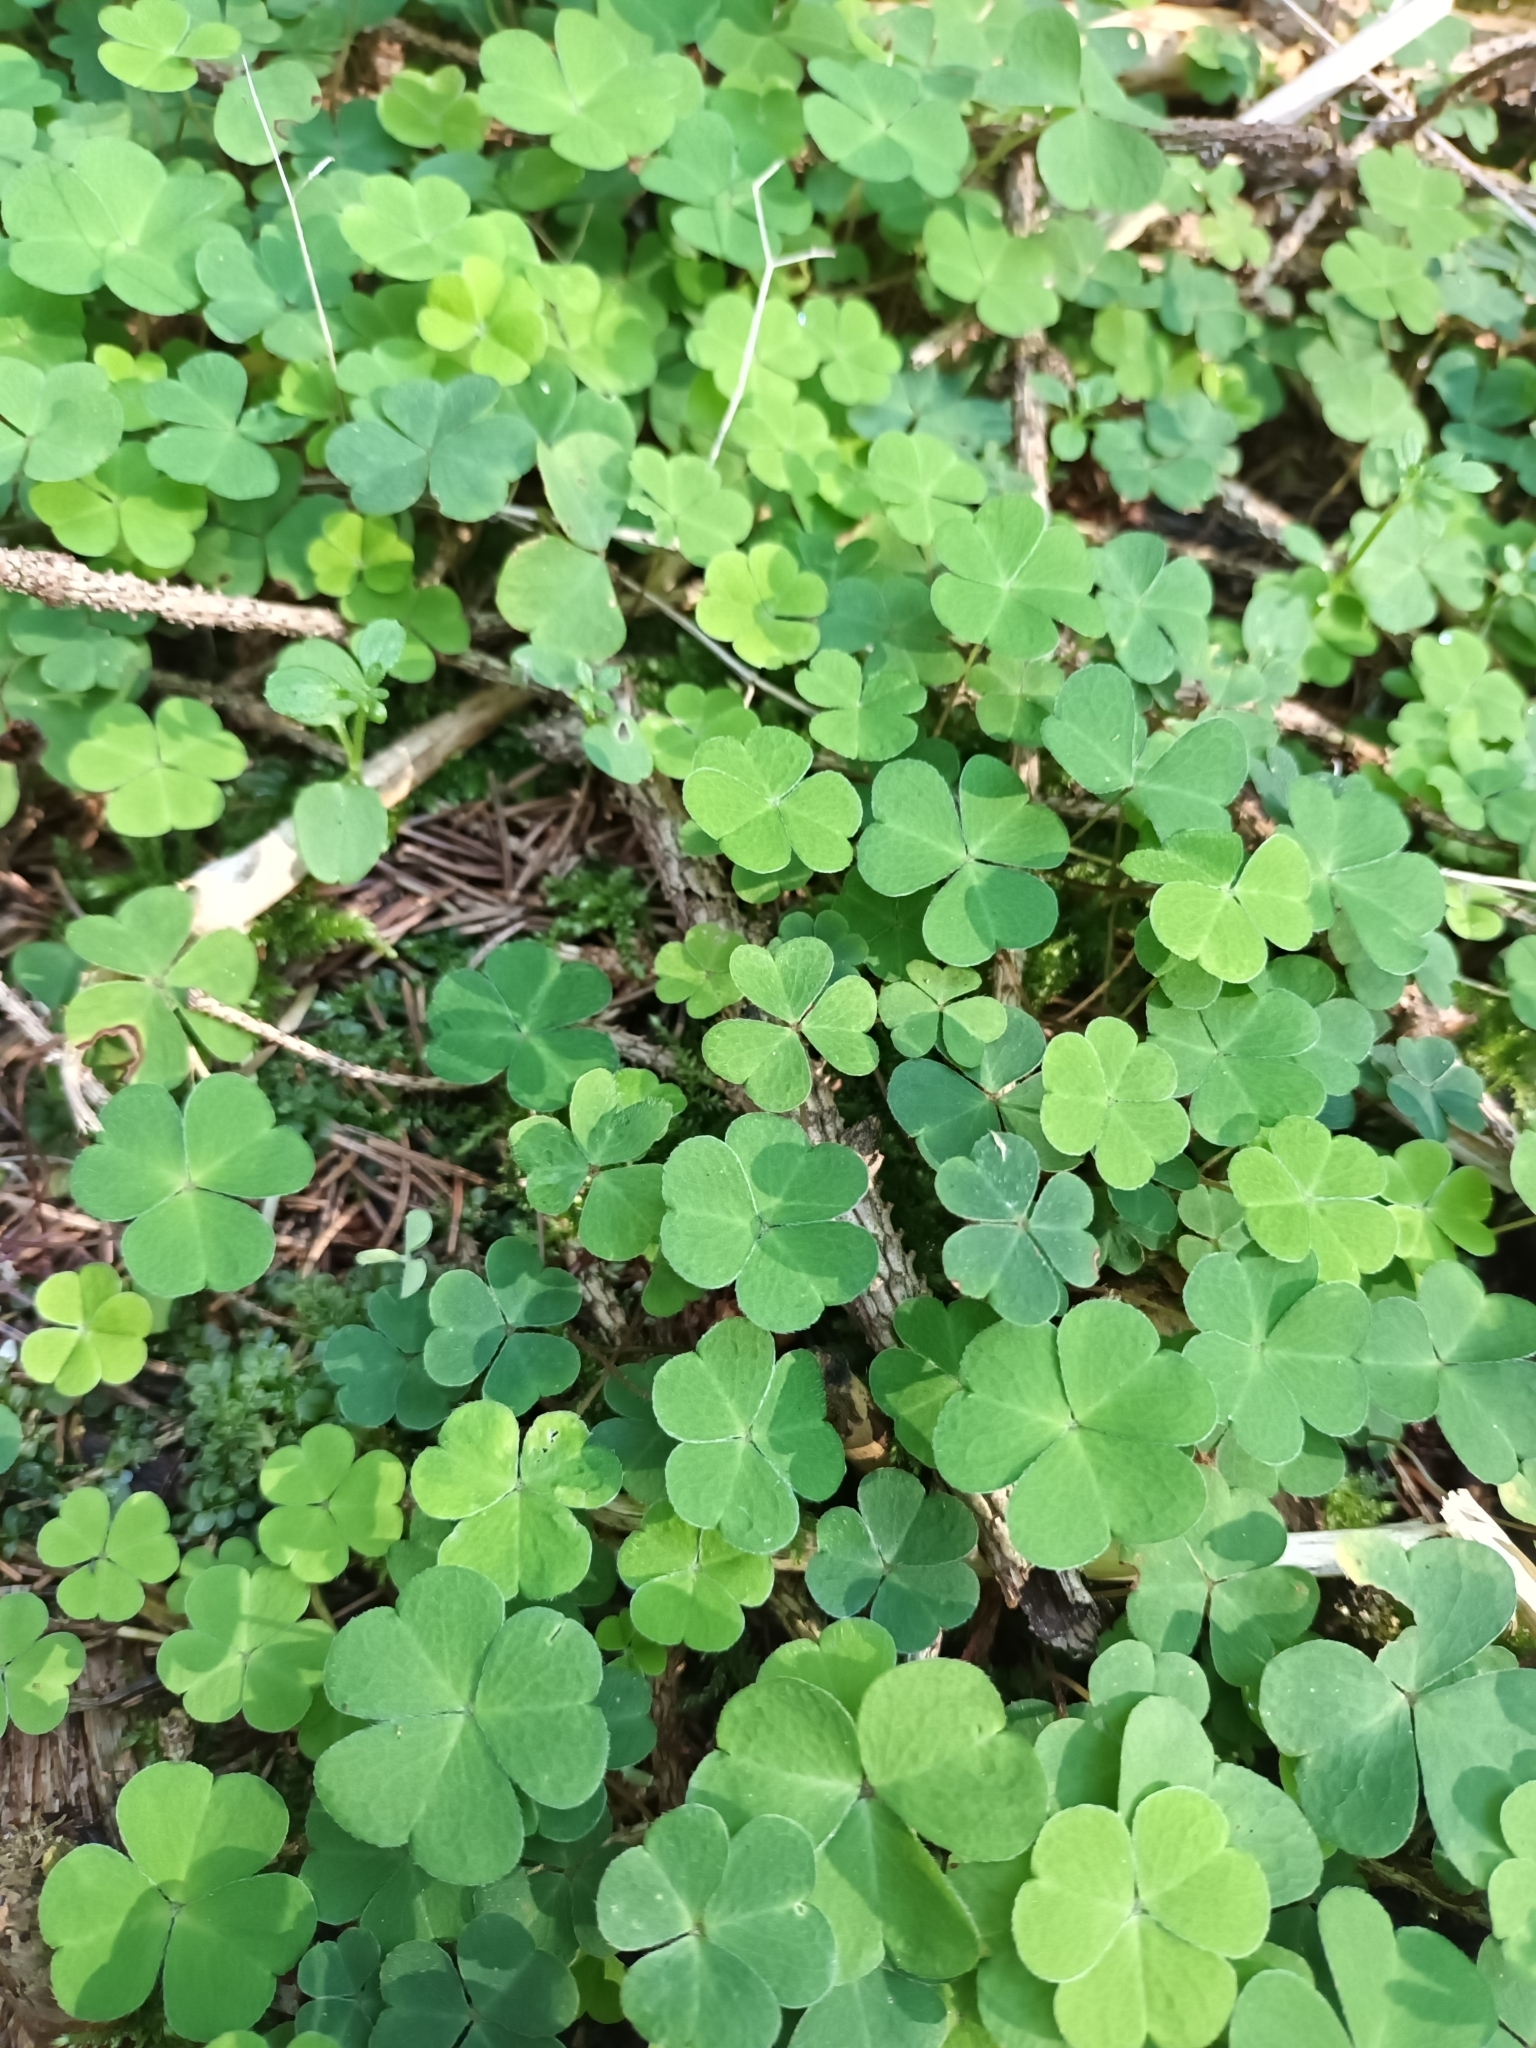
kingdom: Plantae
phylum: Tracheophyta
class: Magnoliopsida
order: Oxalidales
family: Oxalidaceae
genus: Oxalis
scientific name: Oxalis acetosella
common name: Wood-sorrel
